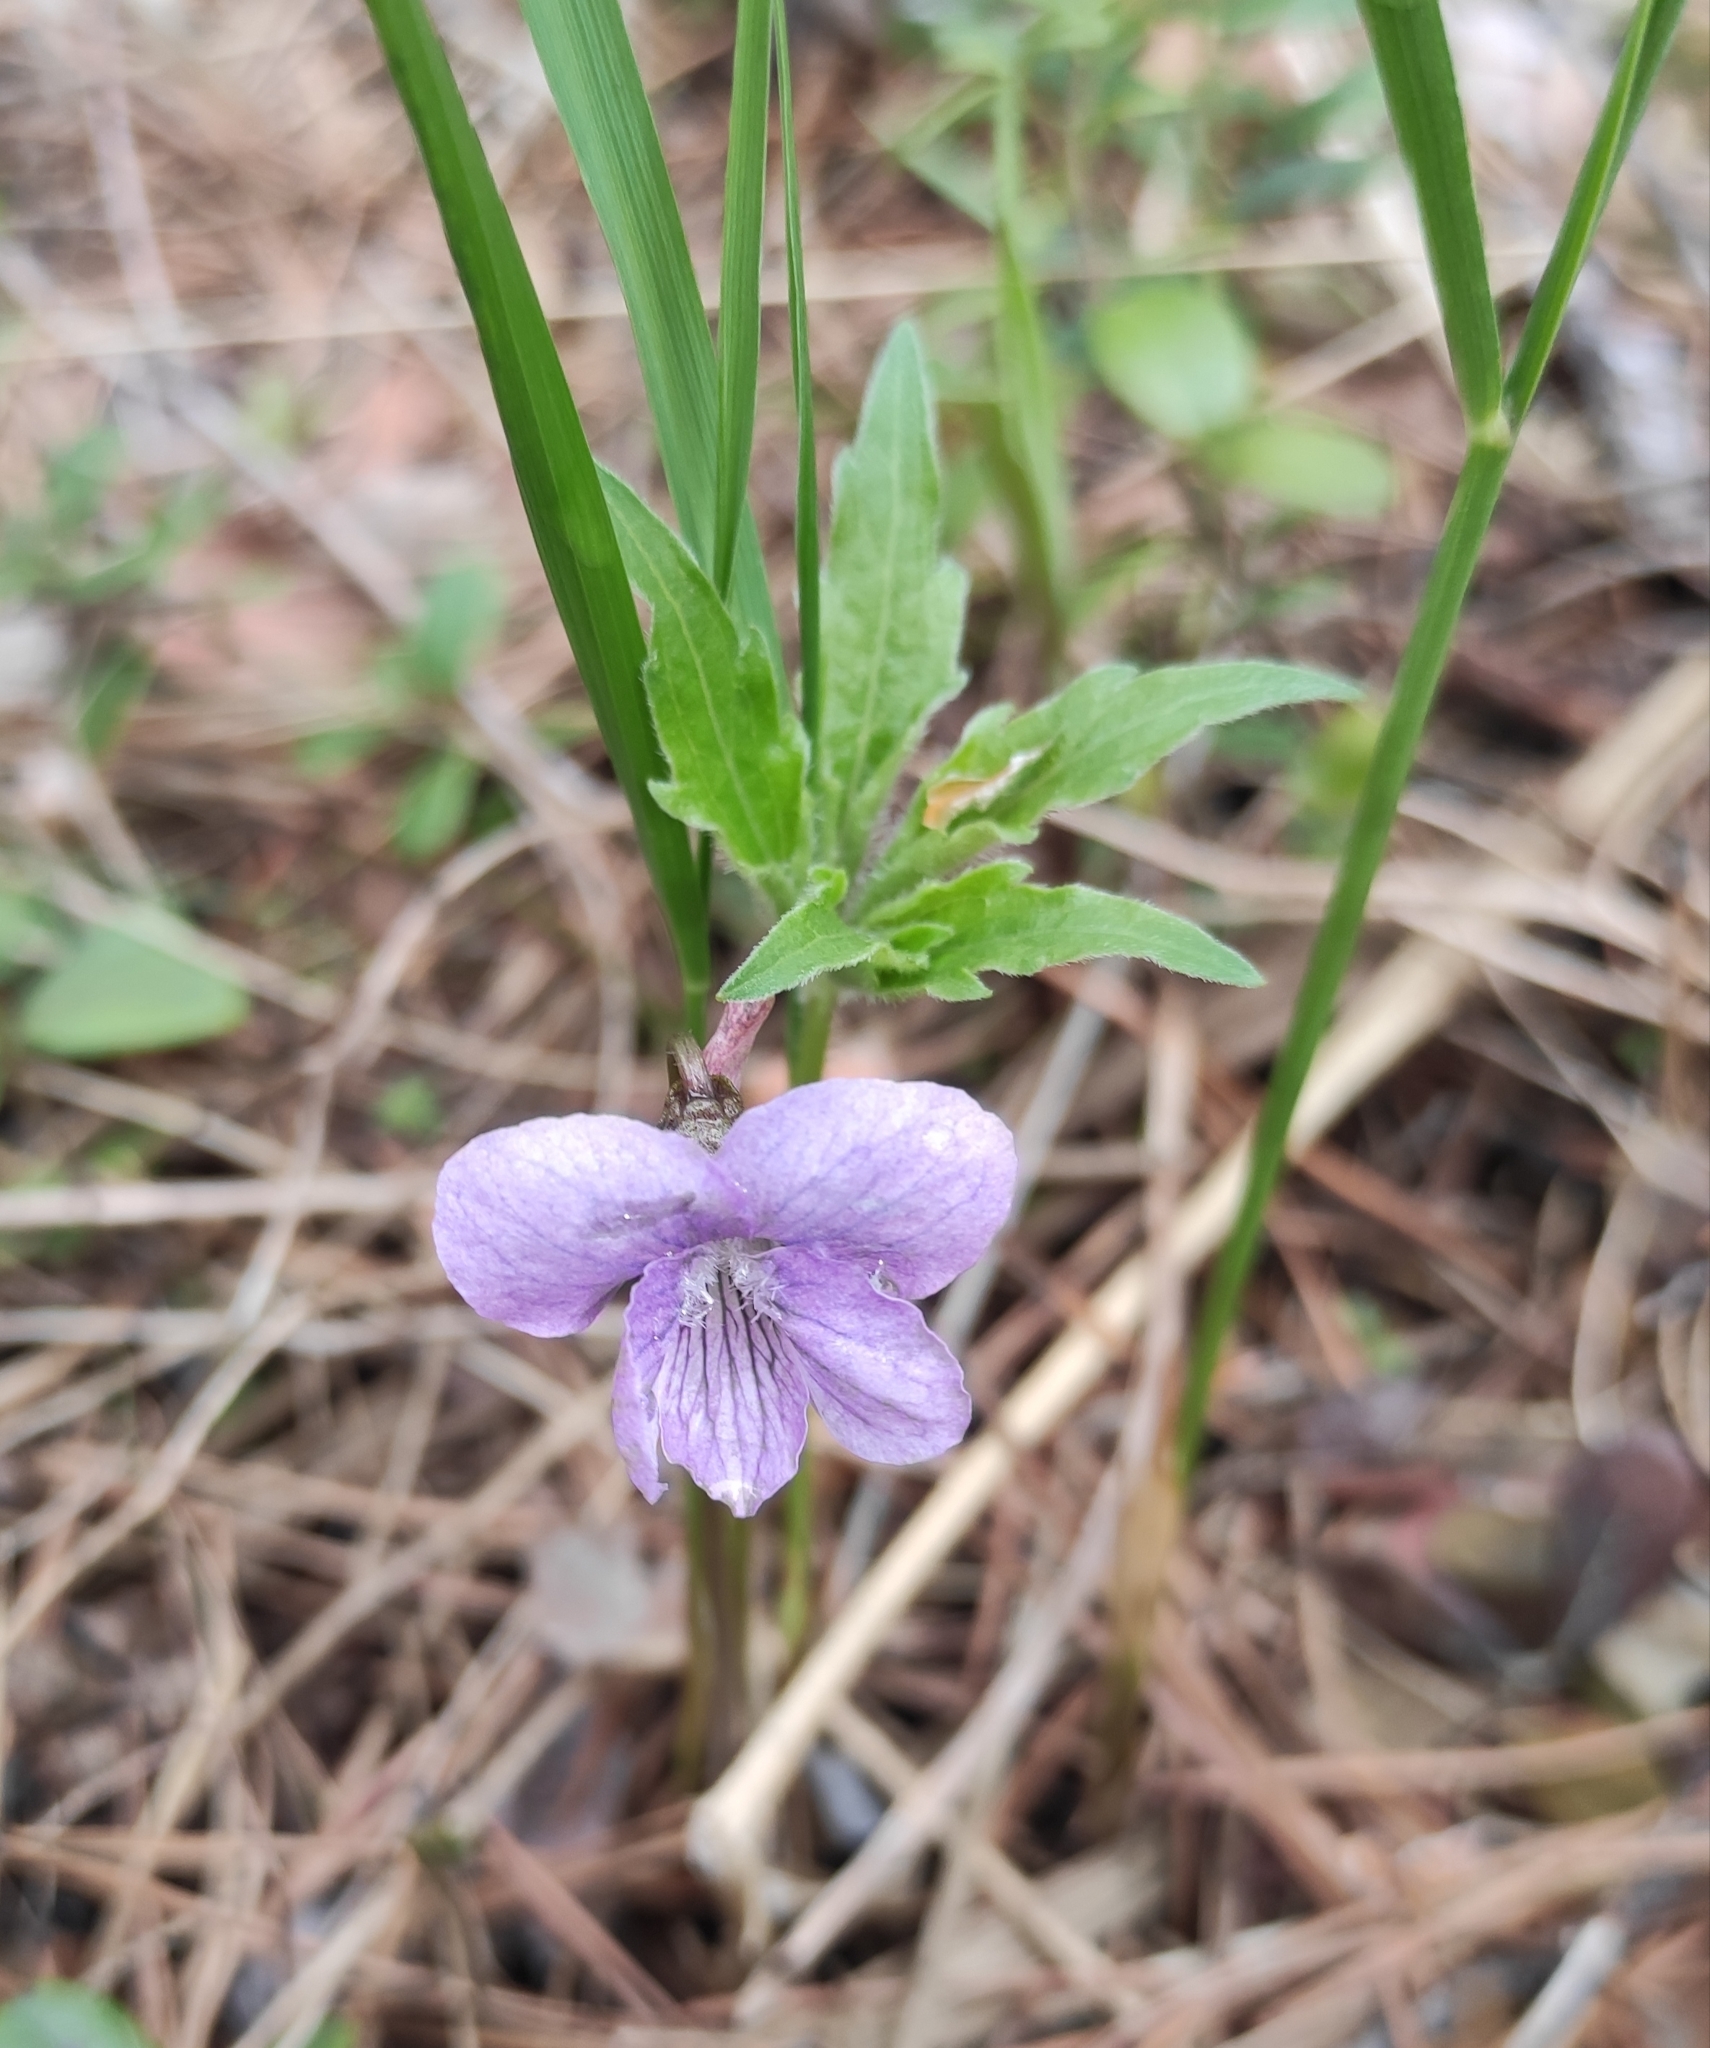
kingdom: Plantae
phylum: Tracheophyta
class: Magnoliopsida
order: Malpighiales
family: Violaceae
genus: Viola
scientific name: Viola dactyloides
